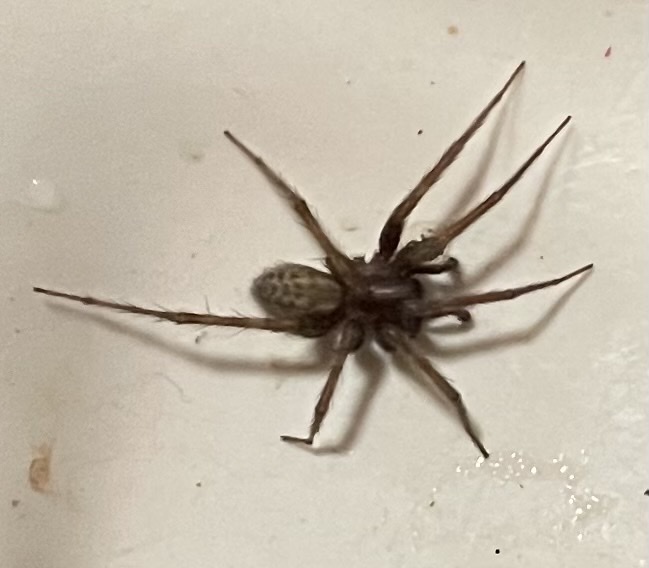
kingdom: Animalia
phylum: Arthropoda
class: Arachnida
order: Araneae
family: Agelenidae
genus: Tegenaria
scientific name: Tegenaria domestica
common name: Barn funnel weaver
